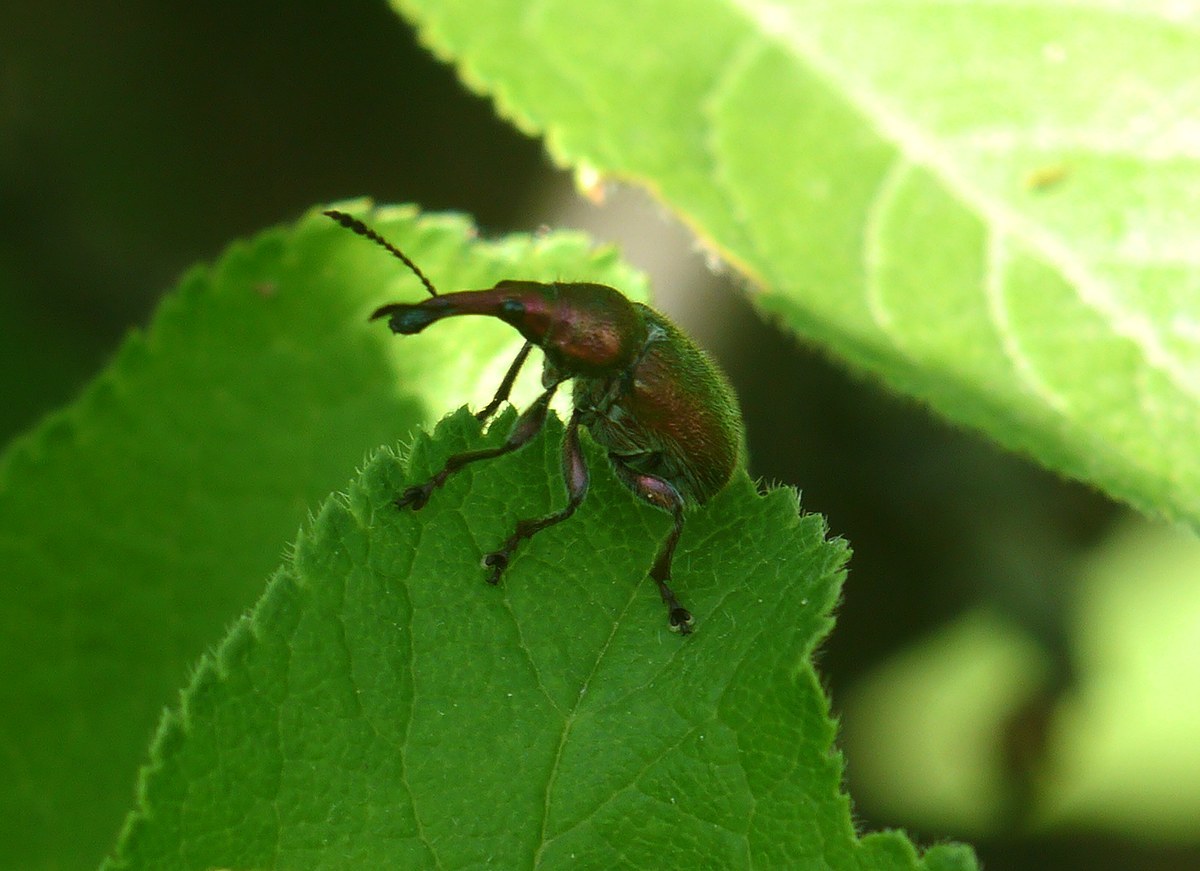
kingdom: Animalia
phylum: Arthropoda
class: Insecta
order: Coleoptera
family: Attelabidae
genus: Rhynchites
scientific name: Rhynchites auratus
